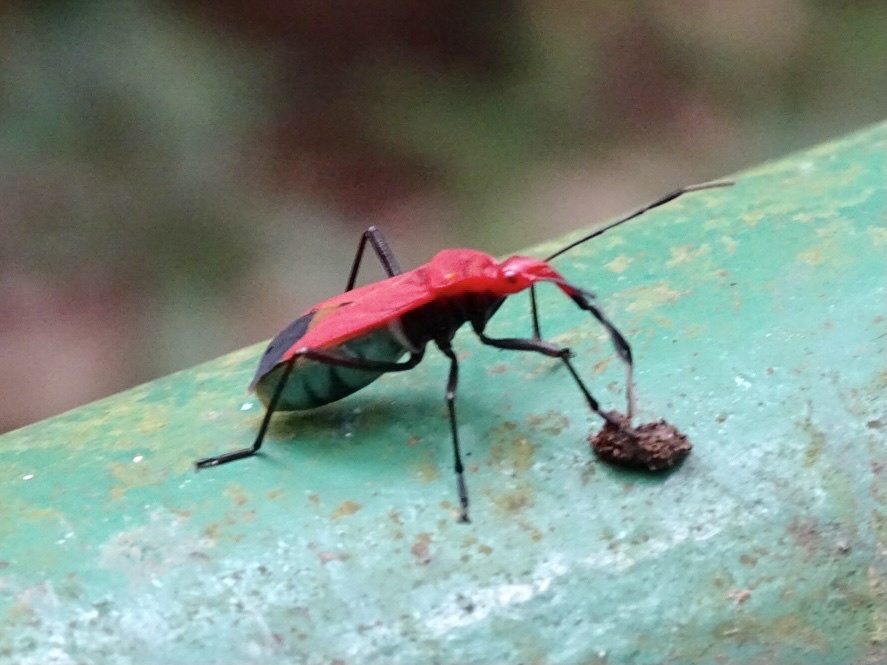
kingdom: Animalia
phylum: Arthropoda
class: Insecta
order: Hemiptera
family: Pyrrhocoridae
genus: Dindymus
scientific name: Dindymus
